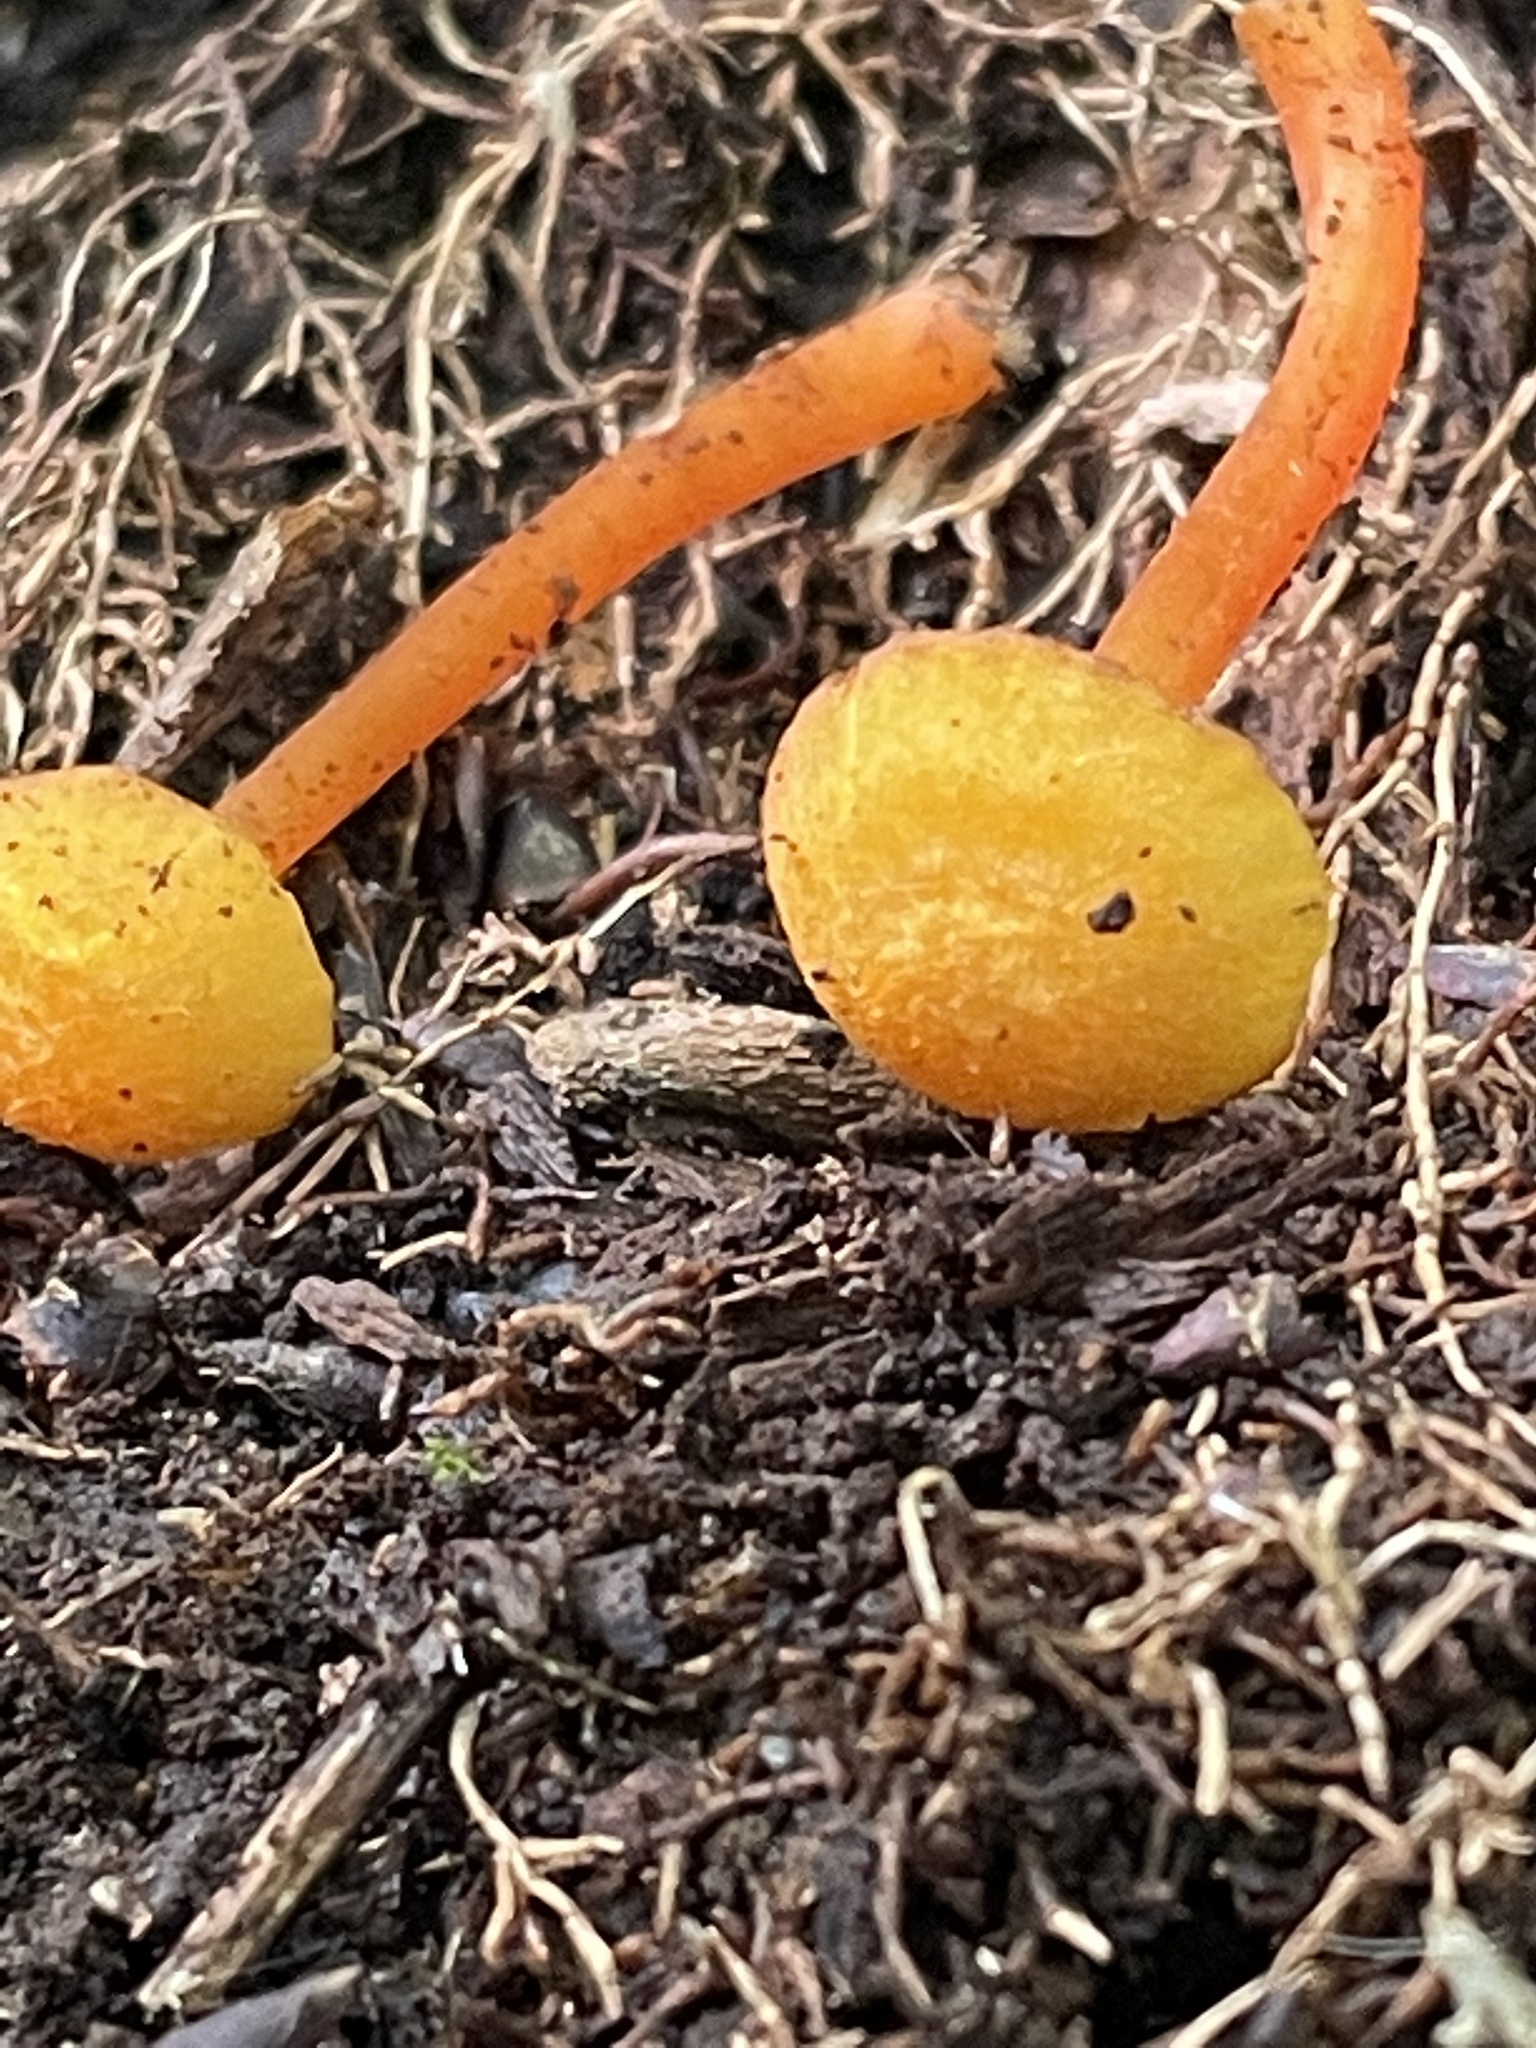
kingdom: Fungi
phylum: Basidiomycota
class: Agaricomycetes
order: Agaricales
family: Hygrophoraceae
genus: Hygrocybe
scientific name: Hygrocybe cantharellus
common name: Goblet waxcap
